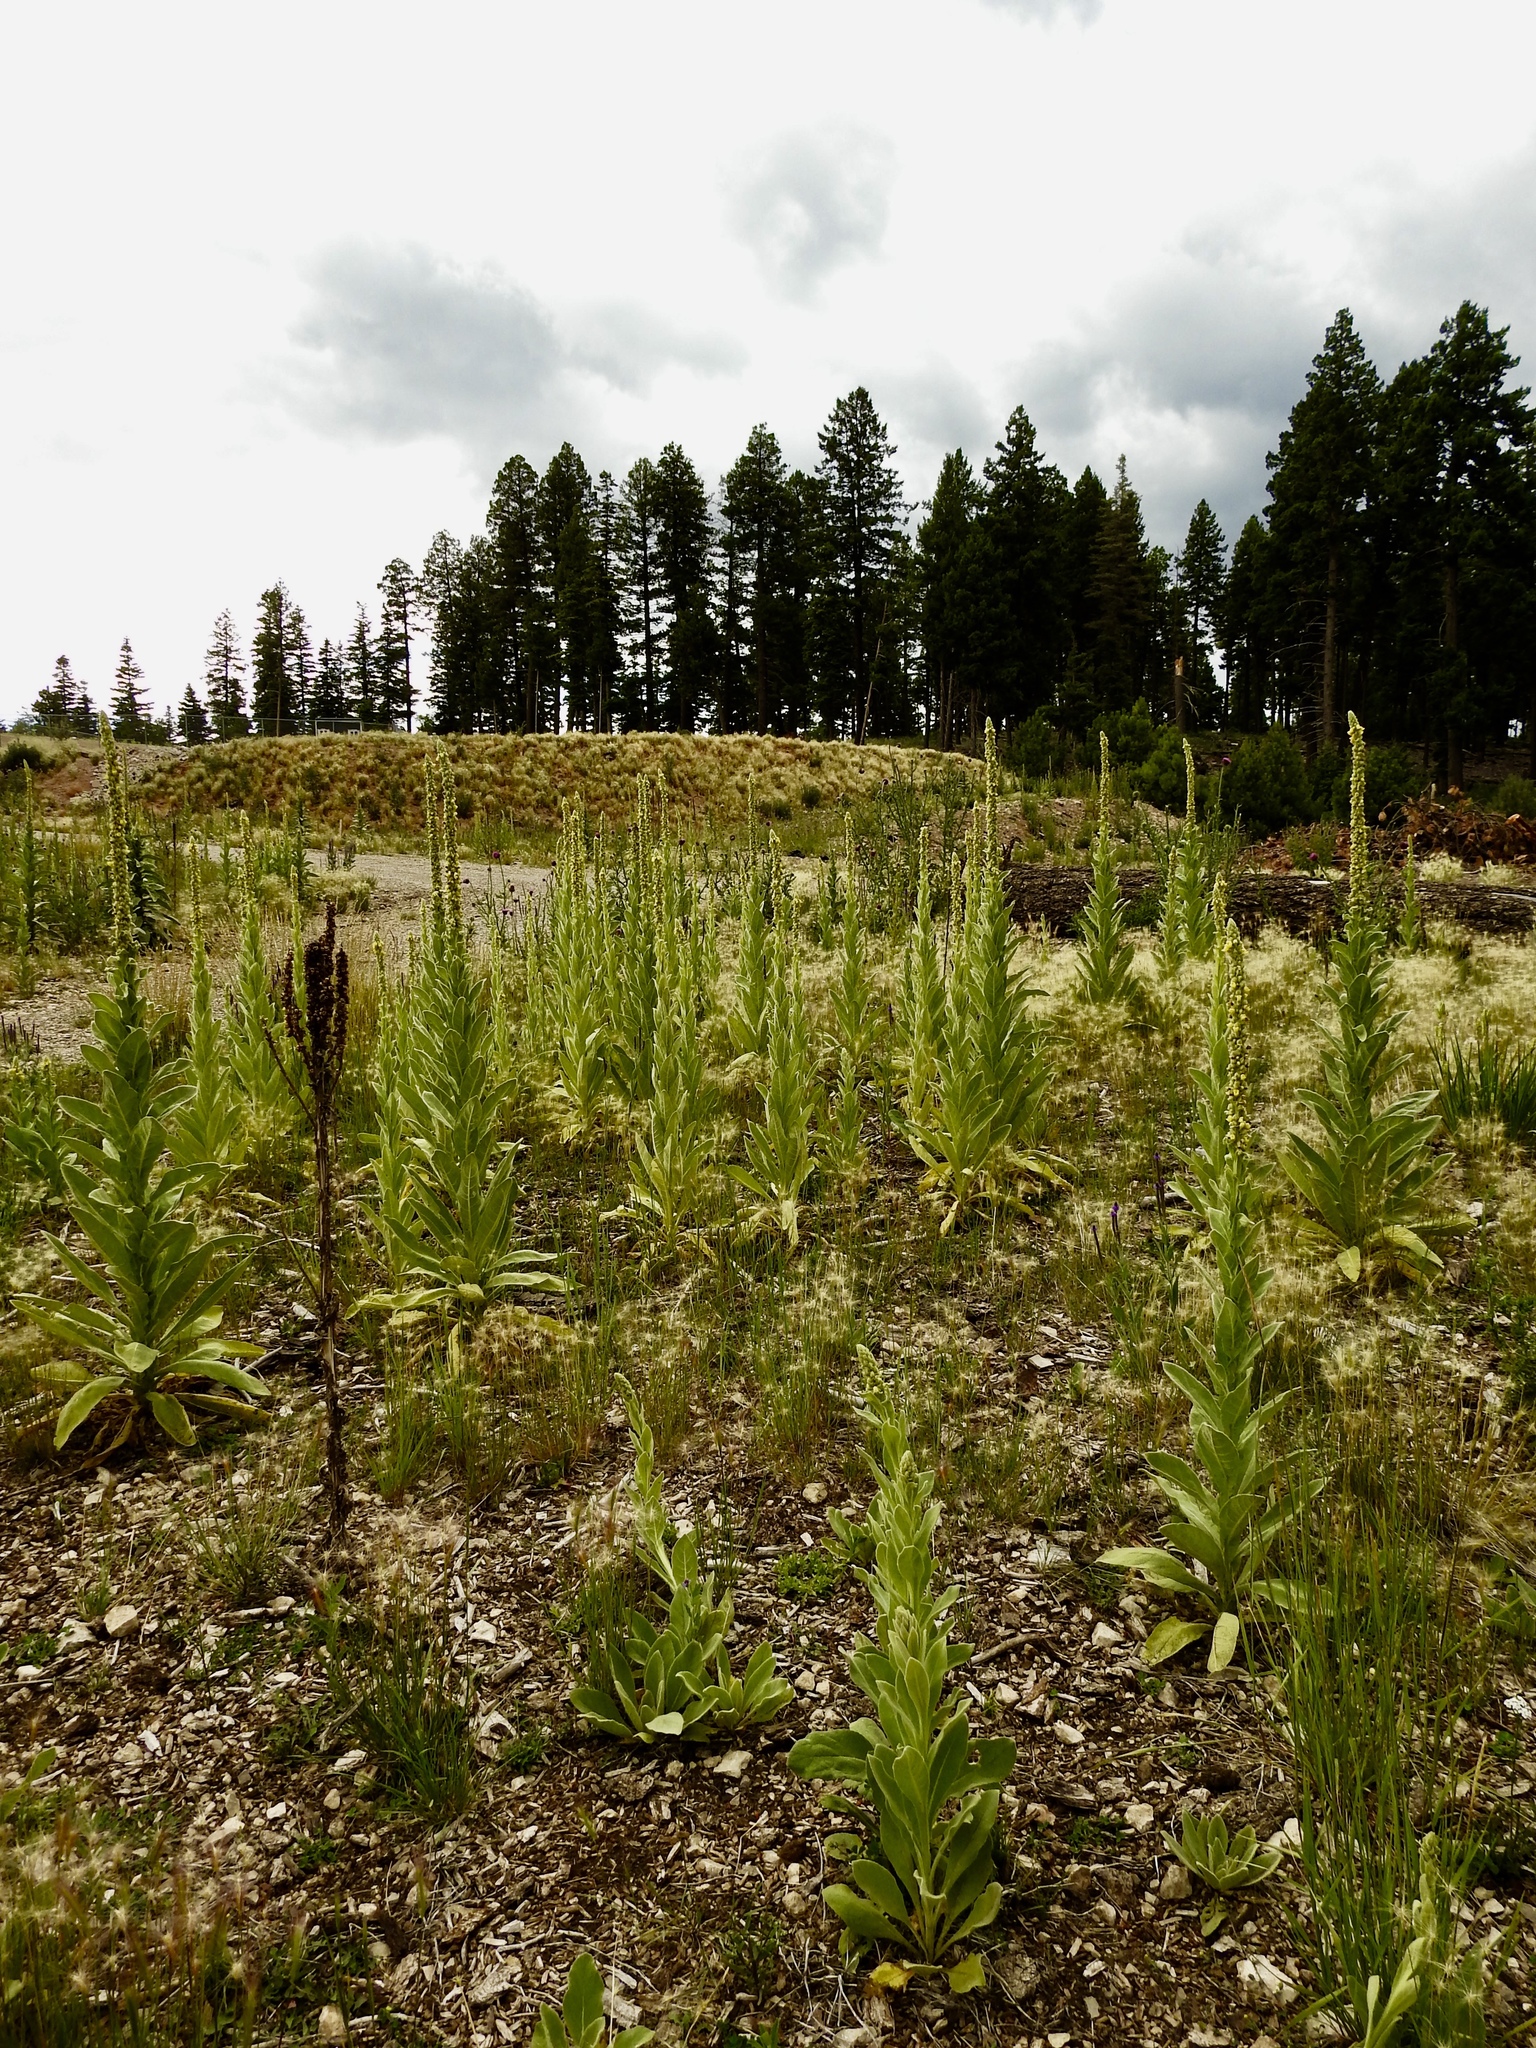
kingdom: Plantae
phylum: Tracheophyta
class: Magnoliopsida
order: Lamiales
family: Scrophulariaceae
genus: Verbascum
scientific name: Verbascum thapsus
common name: Common mullein
